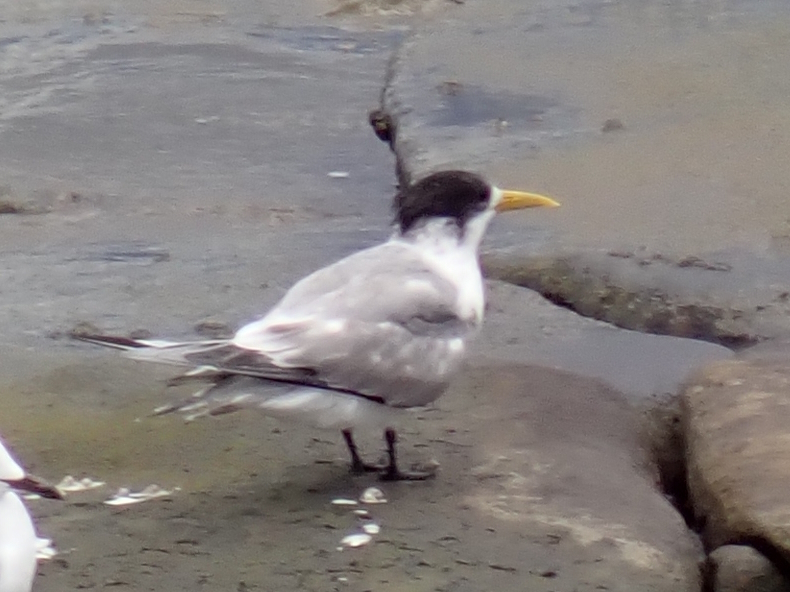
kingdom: Animalia
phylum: Chordata
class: Aves
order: Charadriiformes
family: Laridae
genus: Thalasseus
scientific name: Thalasseus bergii
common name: Greater crested tern
